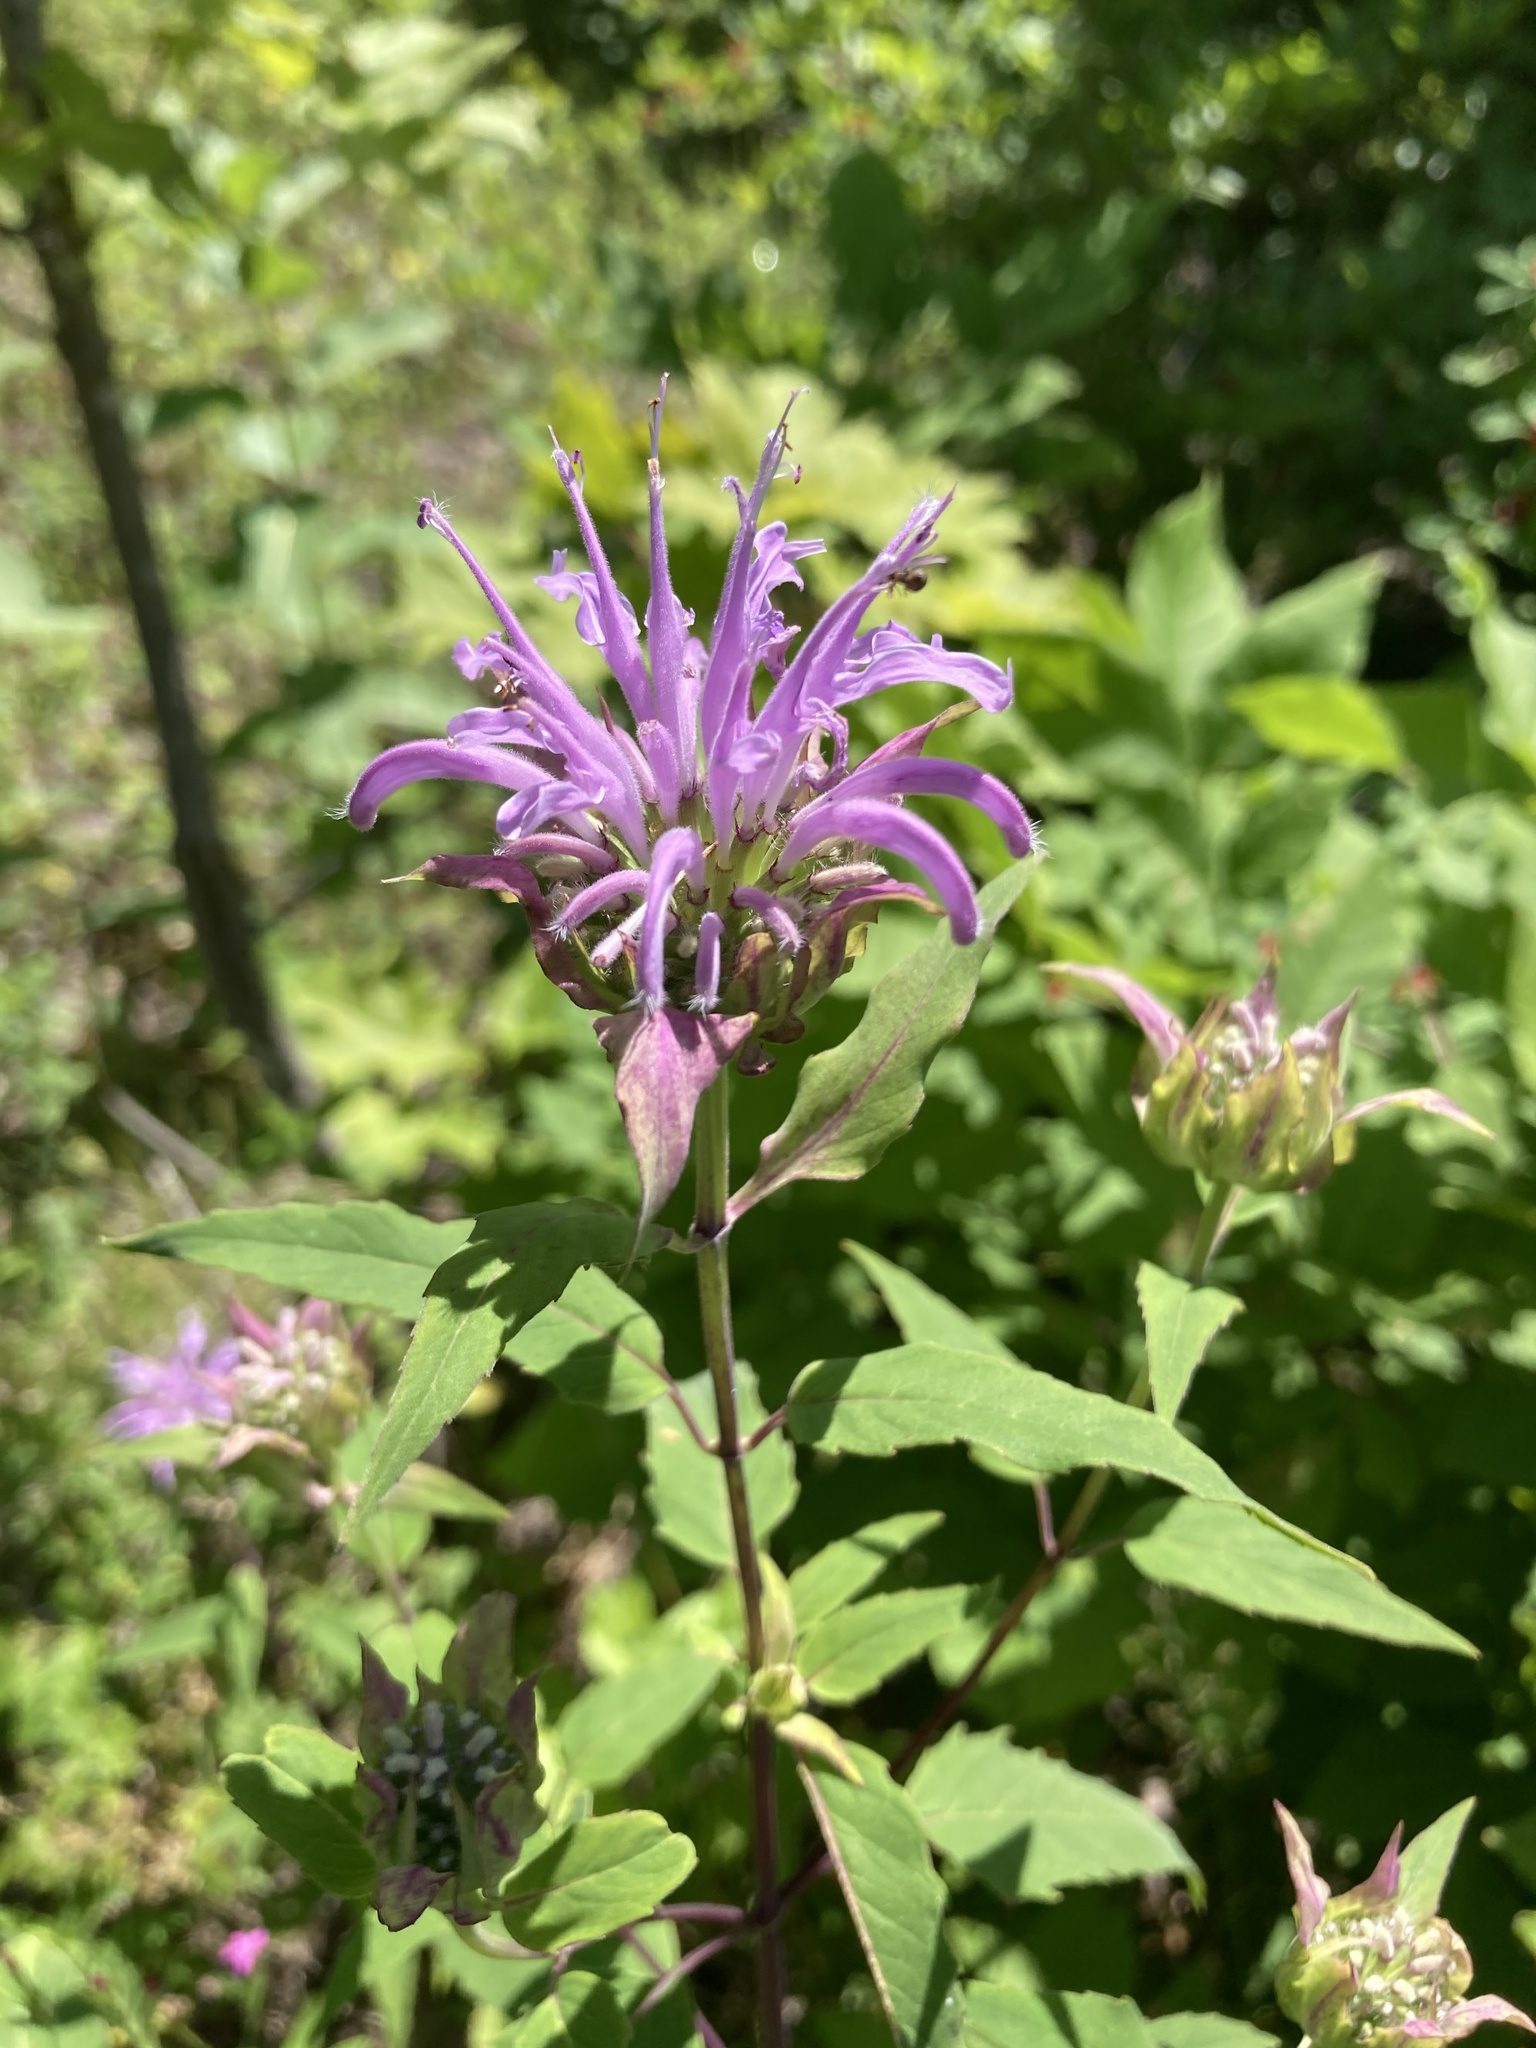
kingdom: Plantae
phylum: Tracheophyta
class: Magnoliopsida
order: Lamiales
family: Lamiaceae
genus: Monarda
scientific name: Monarda fistulosa
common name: Purple beebalm
